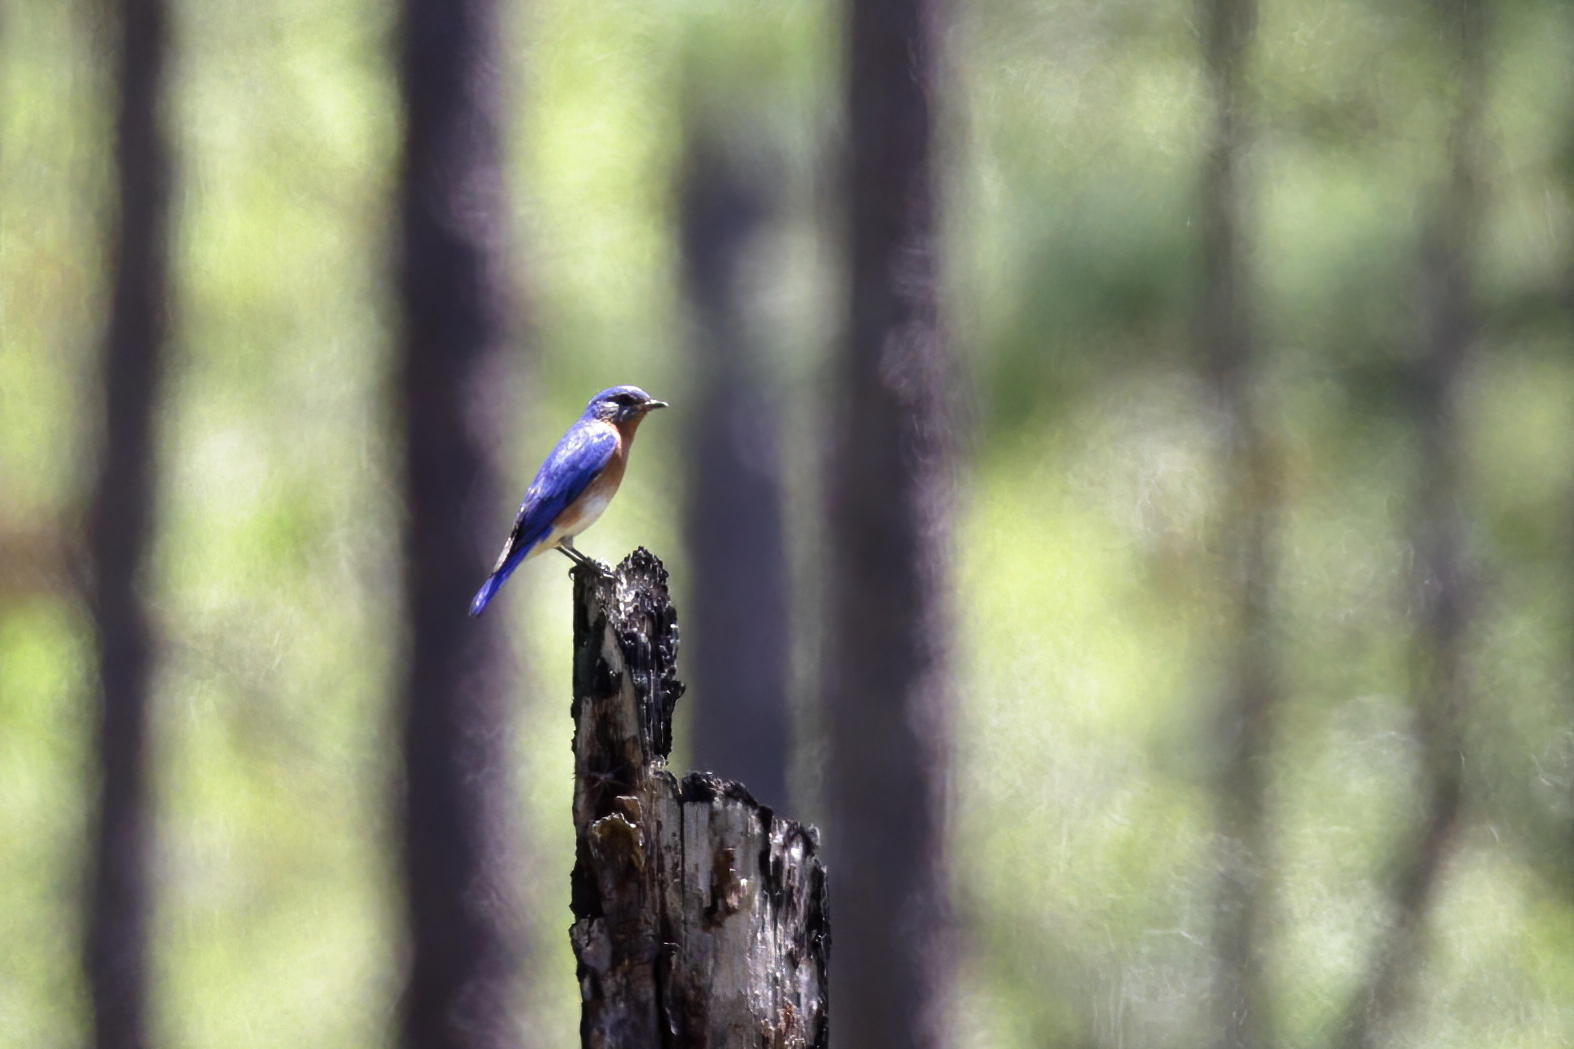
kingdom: Animalia
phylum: Chordata
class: Aves
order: Passeriformes
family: Turdidae
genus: Sialia
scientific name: Sialia sialis
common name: Eastern bluebird
